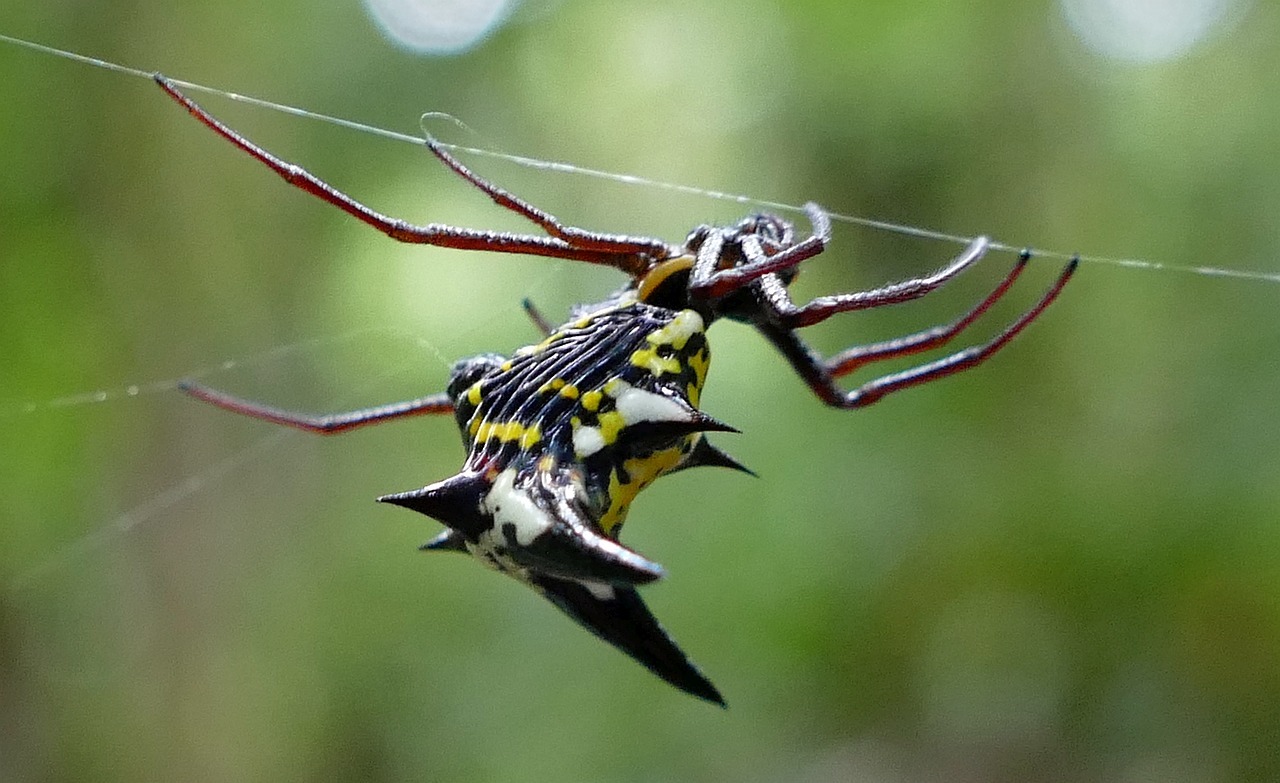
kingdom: Animalia
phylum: Arthropoda
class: Arachnida
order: Araneae
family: Araneidae
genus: Micrathena
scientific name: Micrathena raimondi
